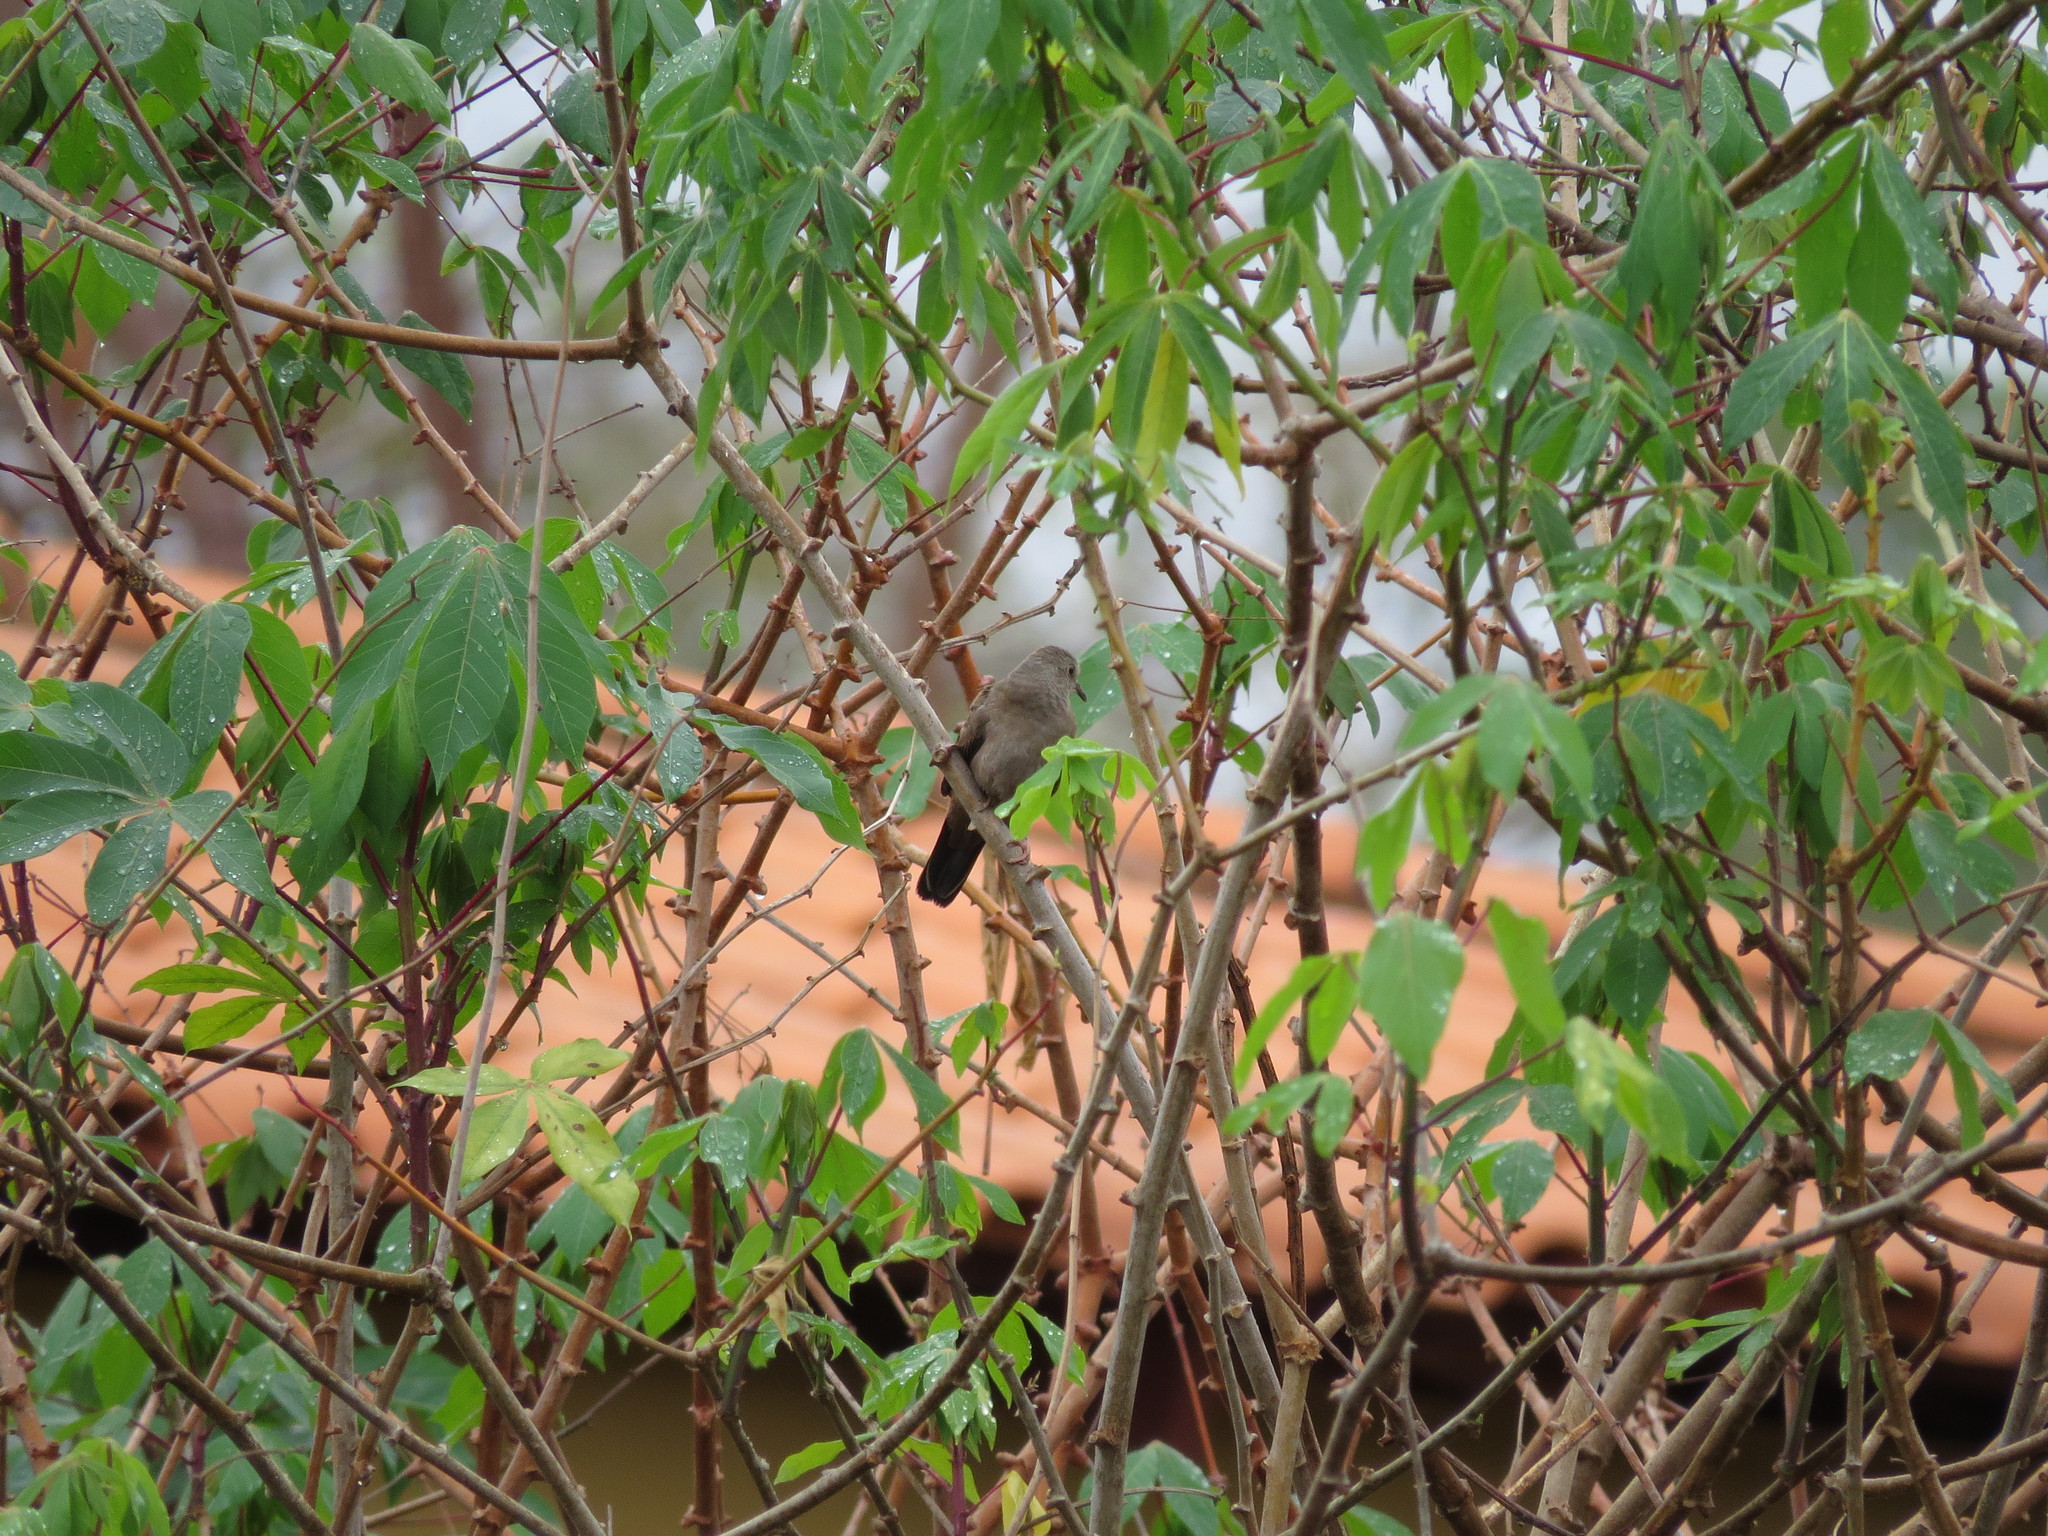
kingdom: Animalia
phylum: Chordata
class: Aves
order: Columbiformes
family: Columbidae
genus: Columbina
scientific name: Columbina minuta
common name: Plain-breasted ground dove
